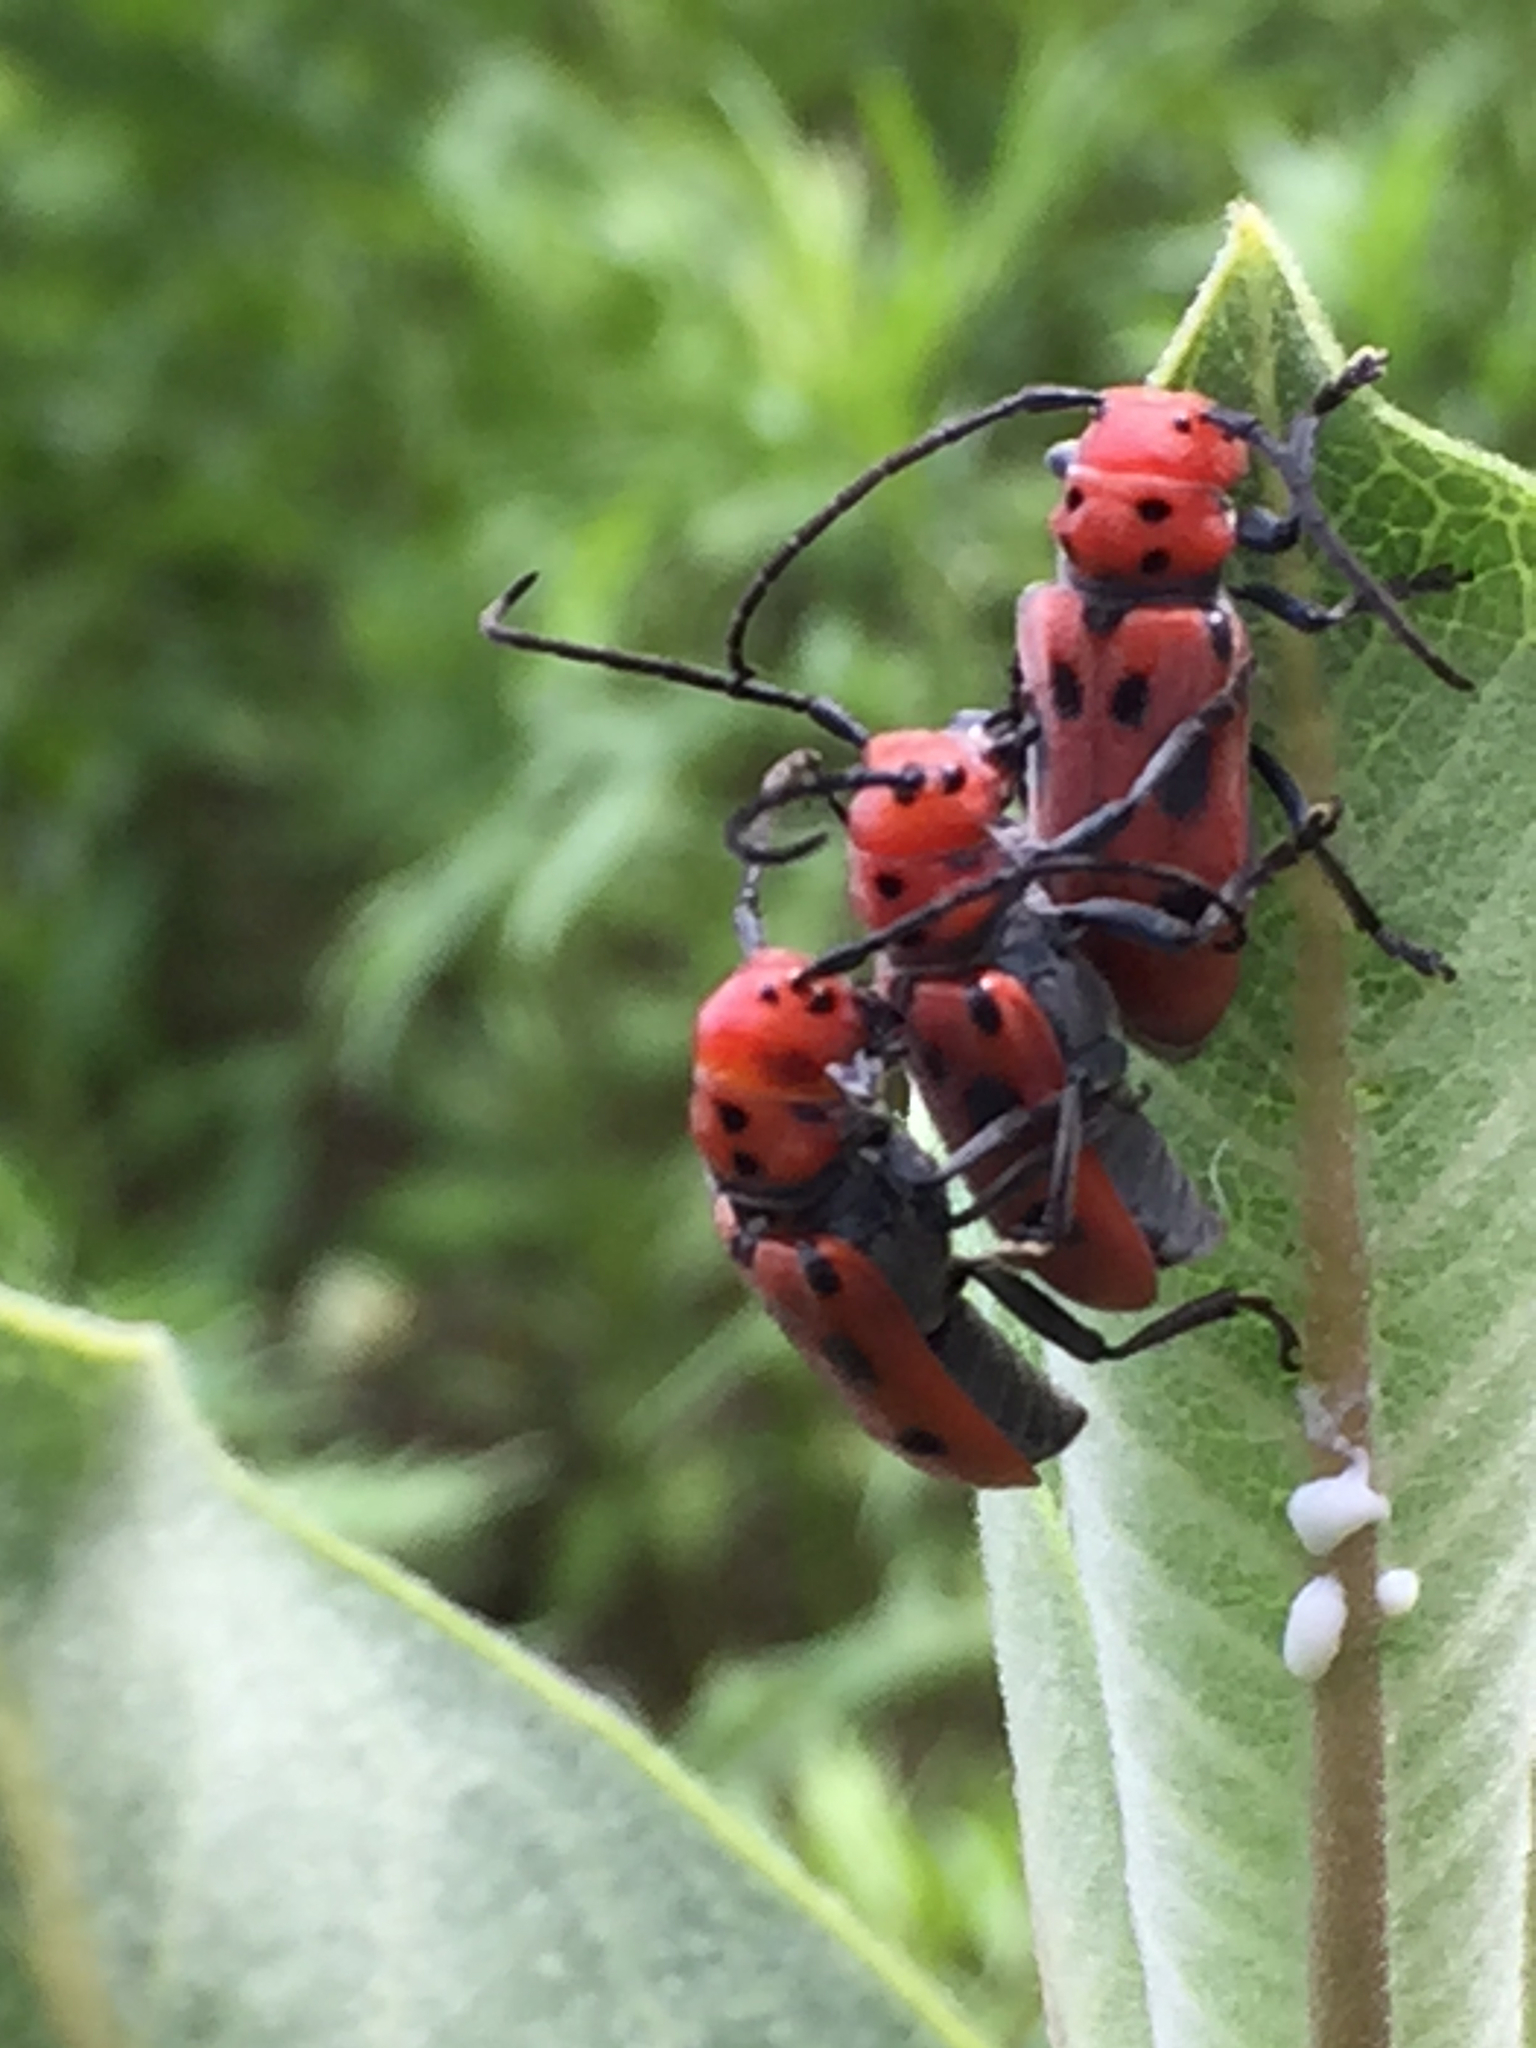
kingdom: Animalia
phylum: Arthropoda
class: Insecta
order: Coleoptera
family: Cerambycidae
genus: Tetraopes
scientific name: Tetraopes tetrophthalmus
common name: Red milkweed beetle
